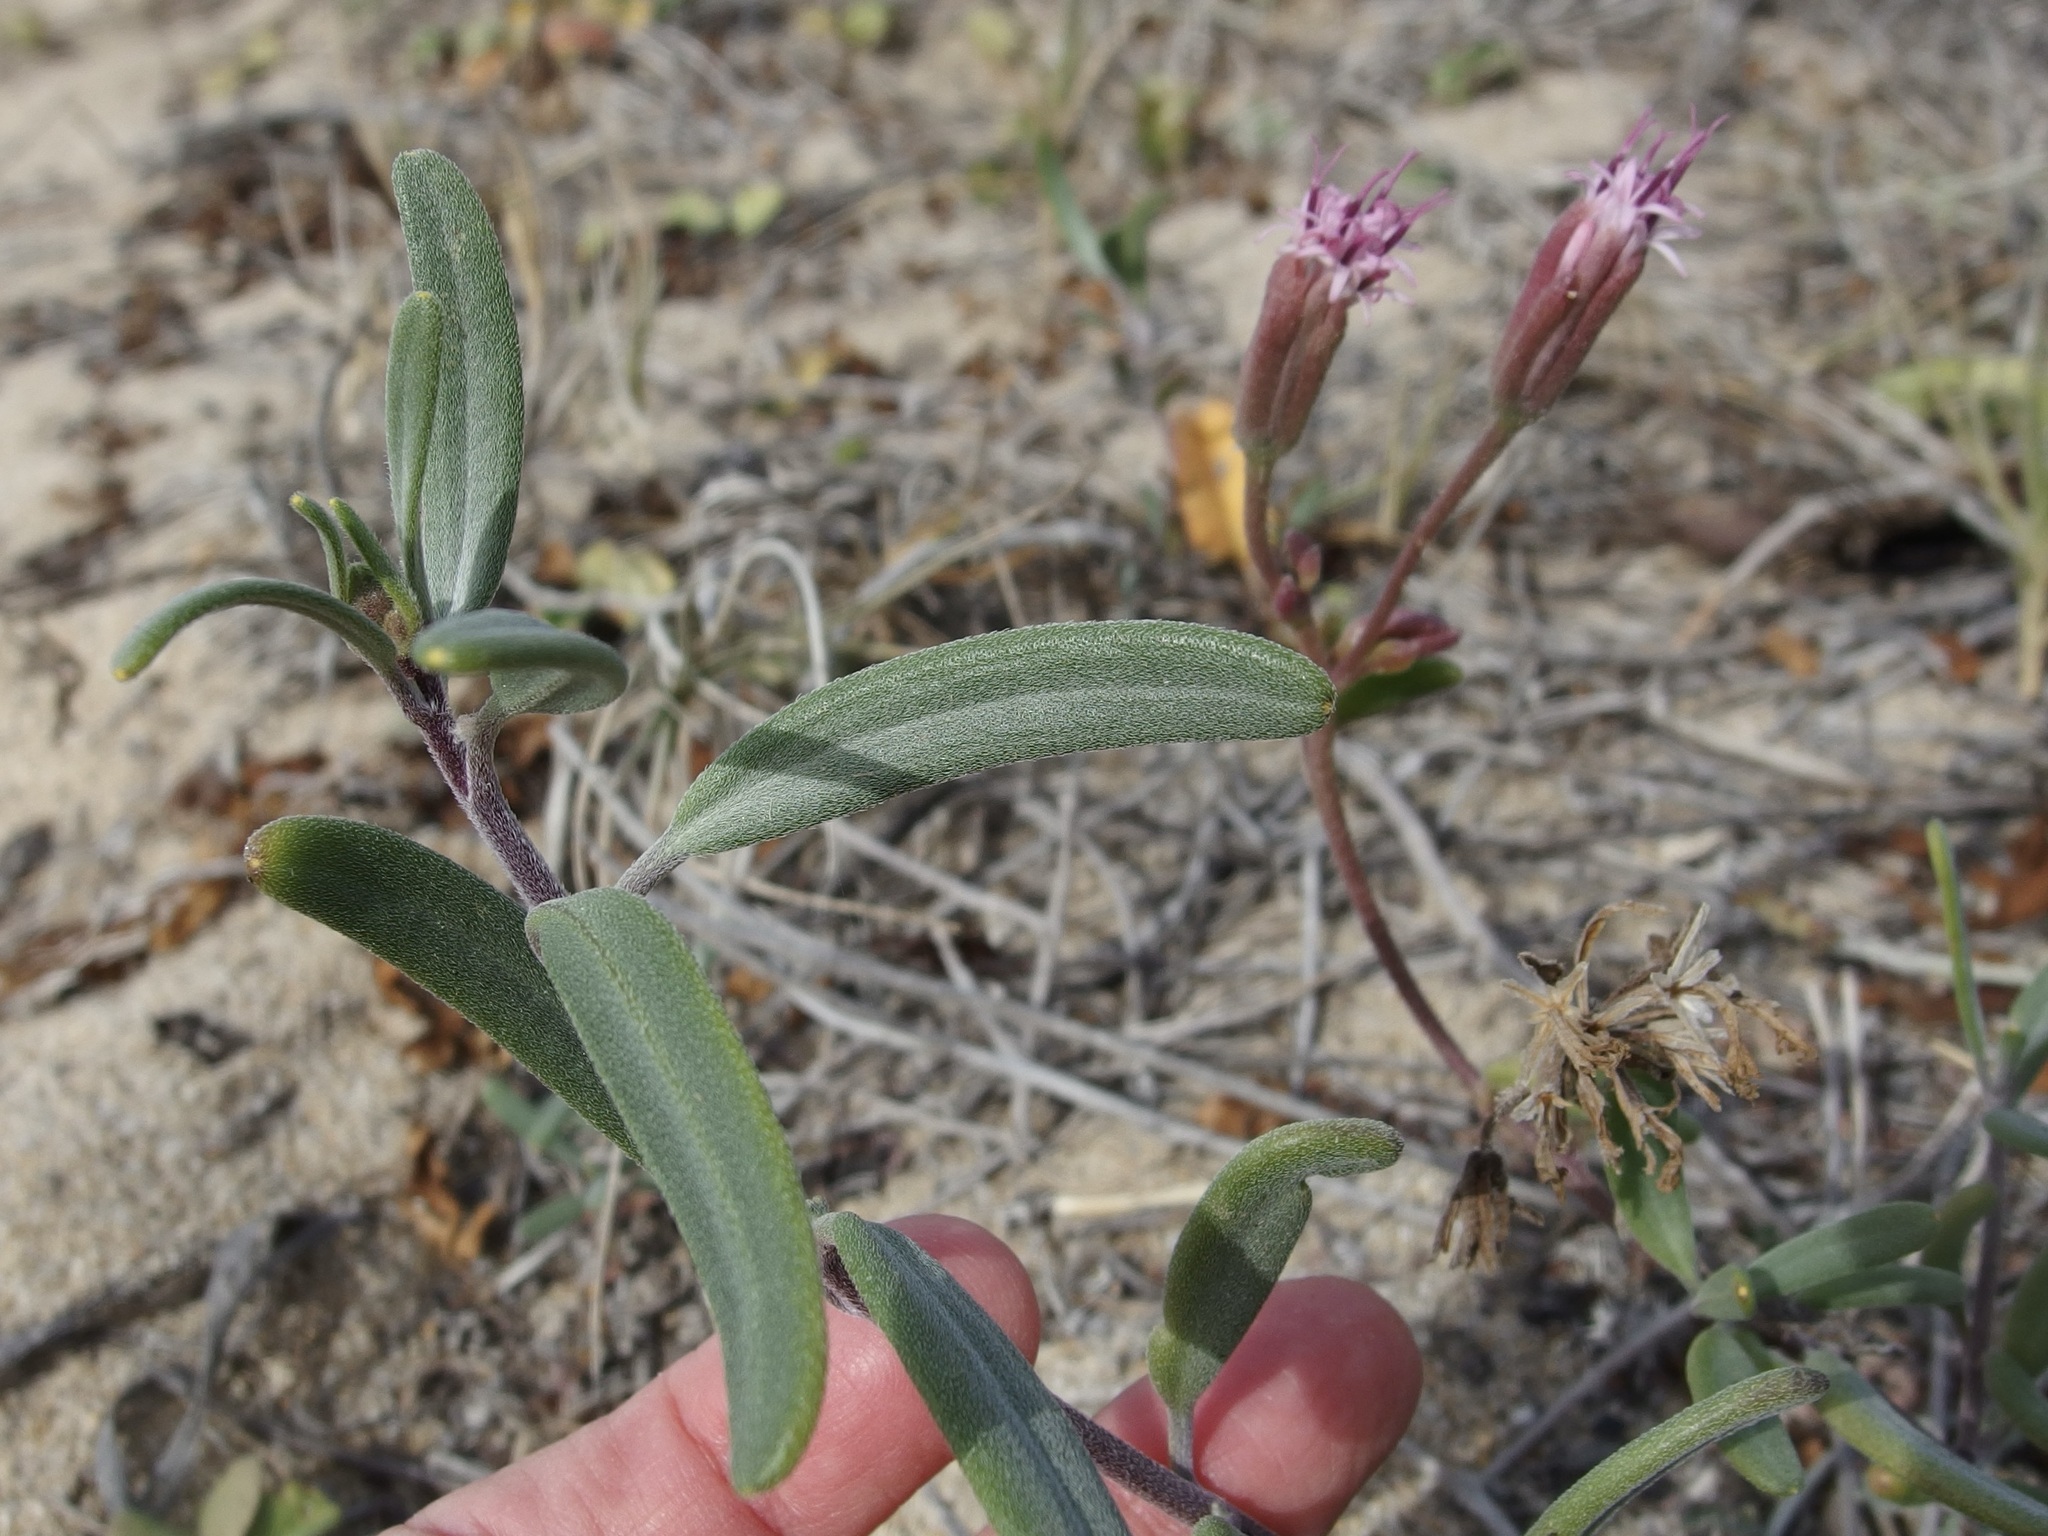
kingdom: Plantae
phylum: Tracheophyta
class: Magnoliopsida
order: Asterales
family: Asteraceae
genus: Palafoxia
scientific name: Palafoxia linearis
